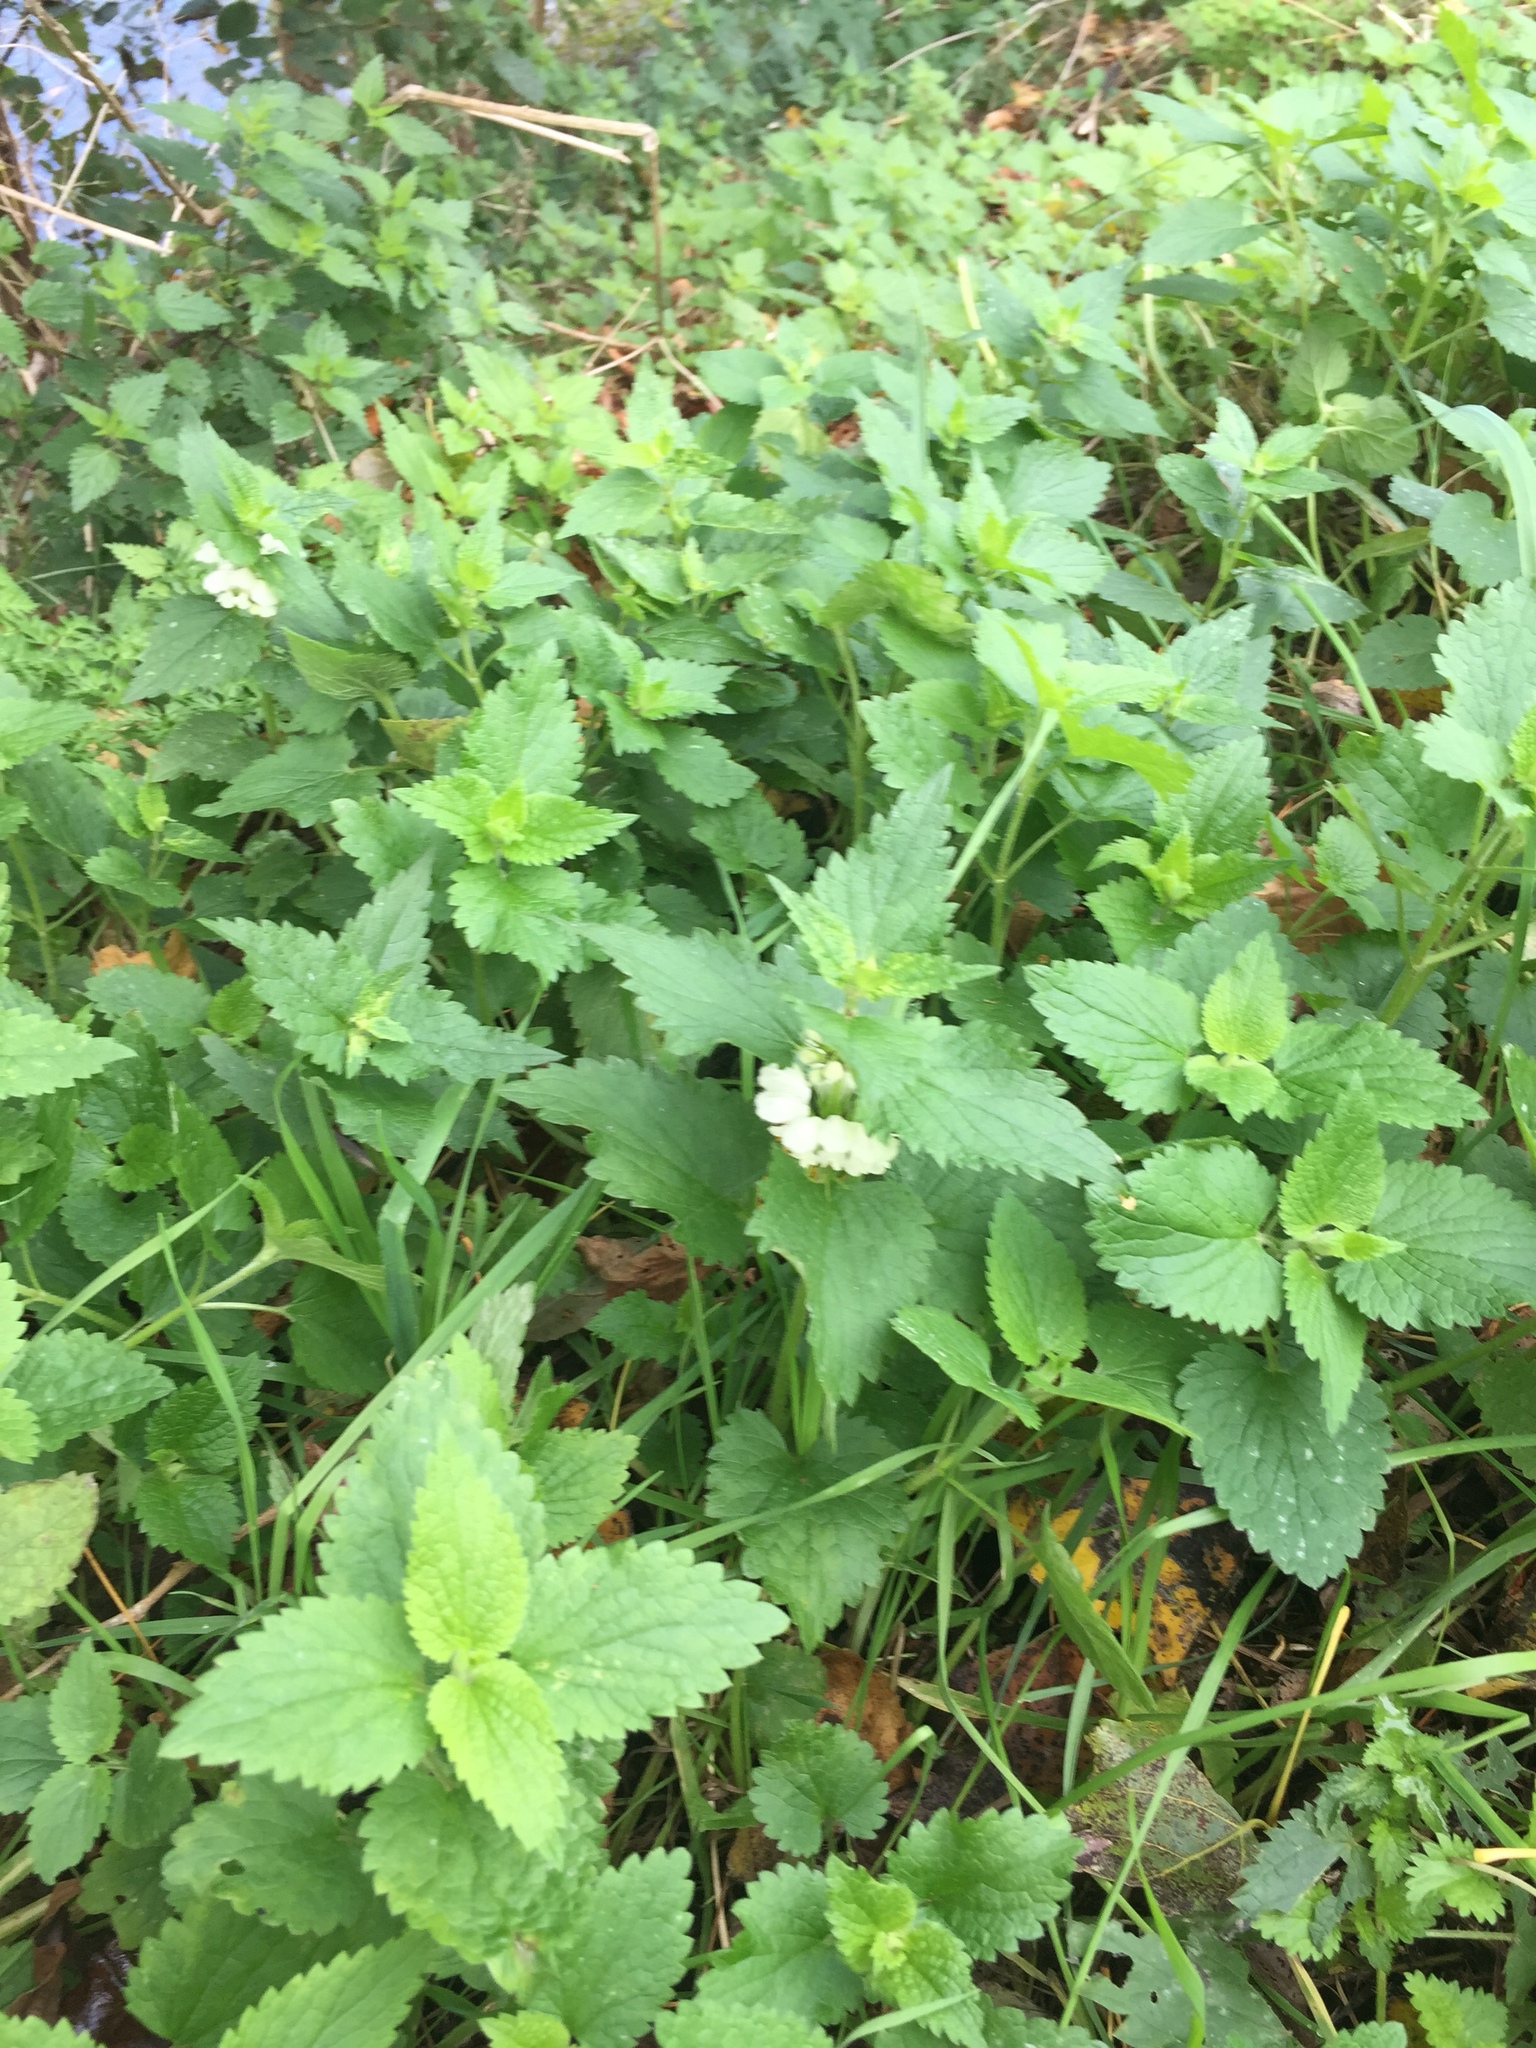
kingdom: Plantae
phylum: Tracheophyta
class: Magnoliopsida
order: Lamiales
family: Lamiaceae
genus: Lamium
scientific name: Lamium album
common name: White dead-nettle
